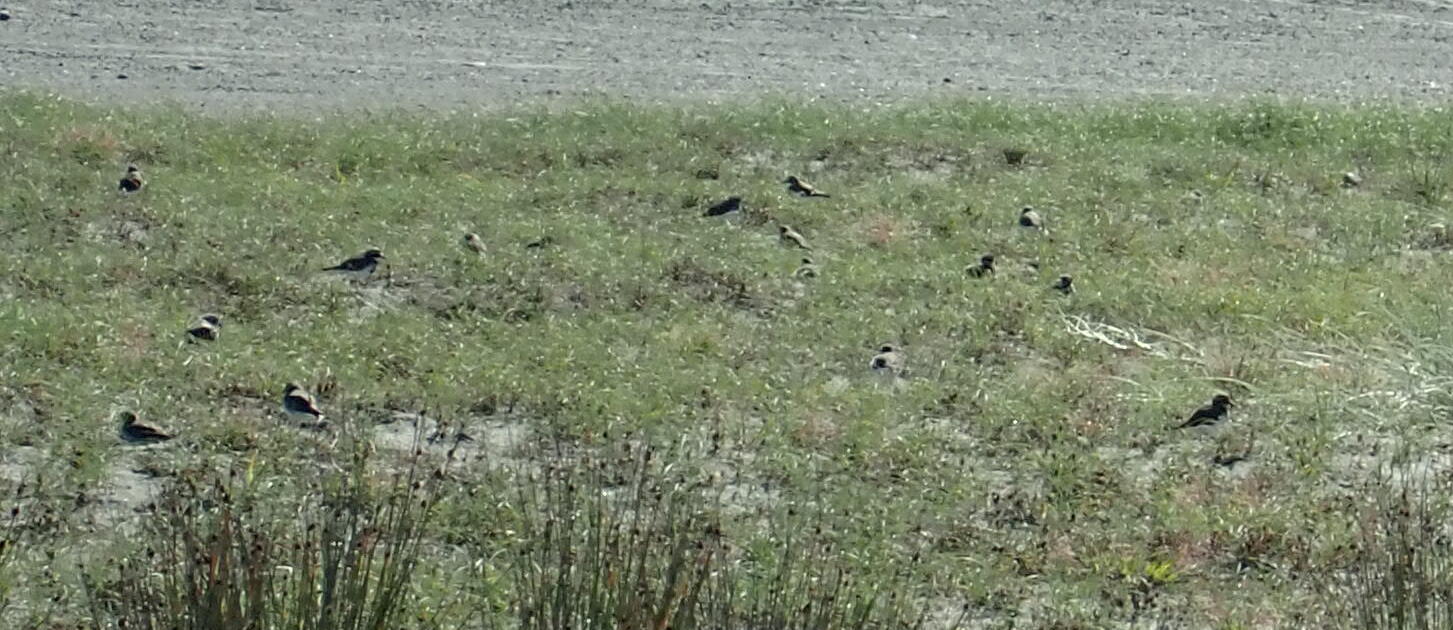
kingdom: Animalia
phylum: Chordata
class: Aves
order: Charadriiformes
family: Charadriidae
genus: Anarhynchus
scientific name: Anarhynchus
